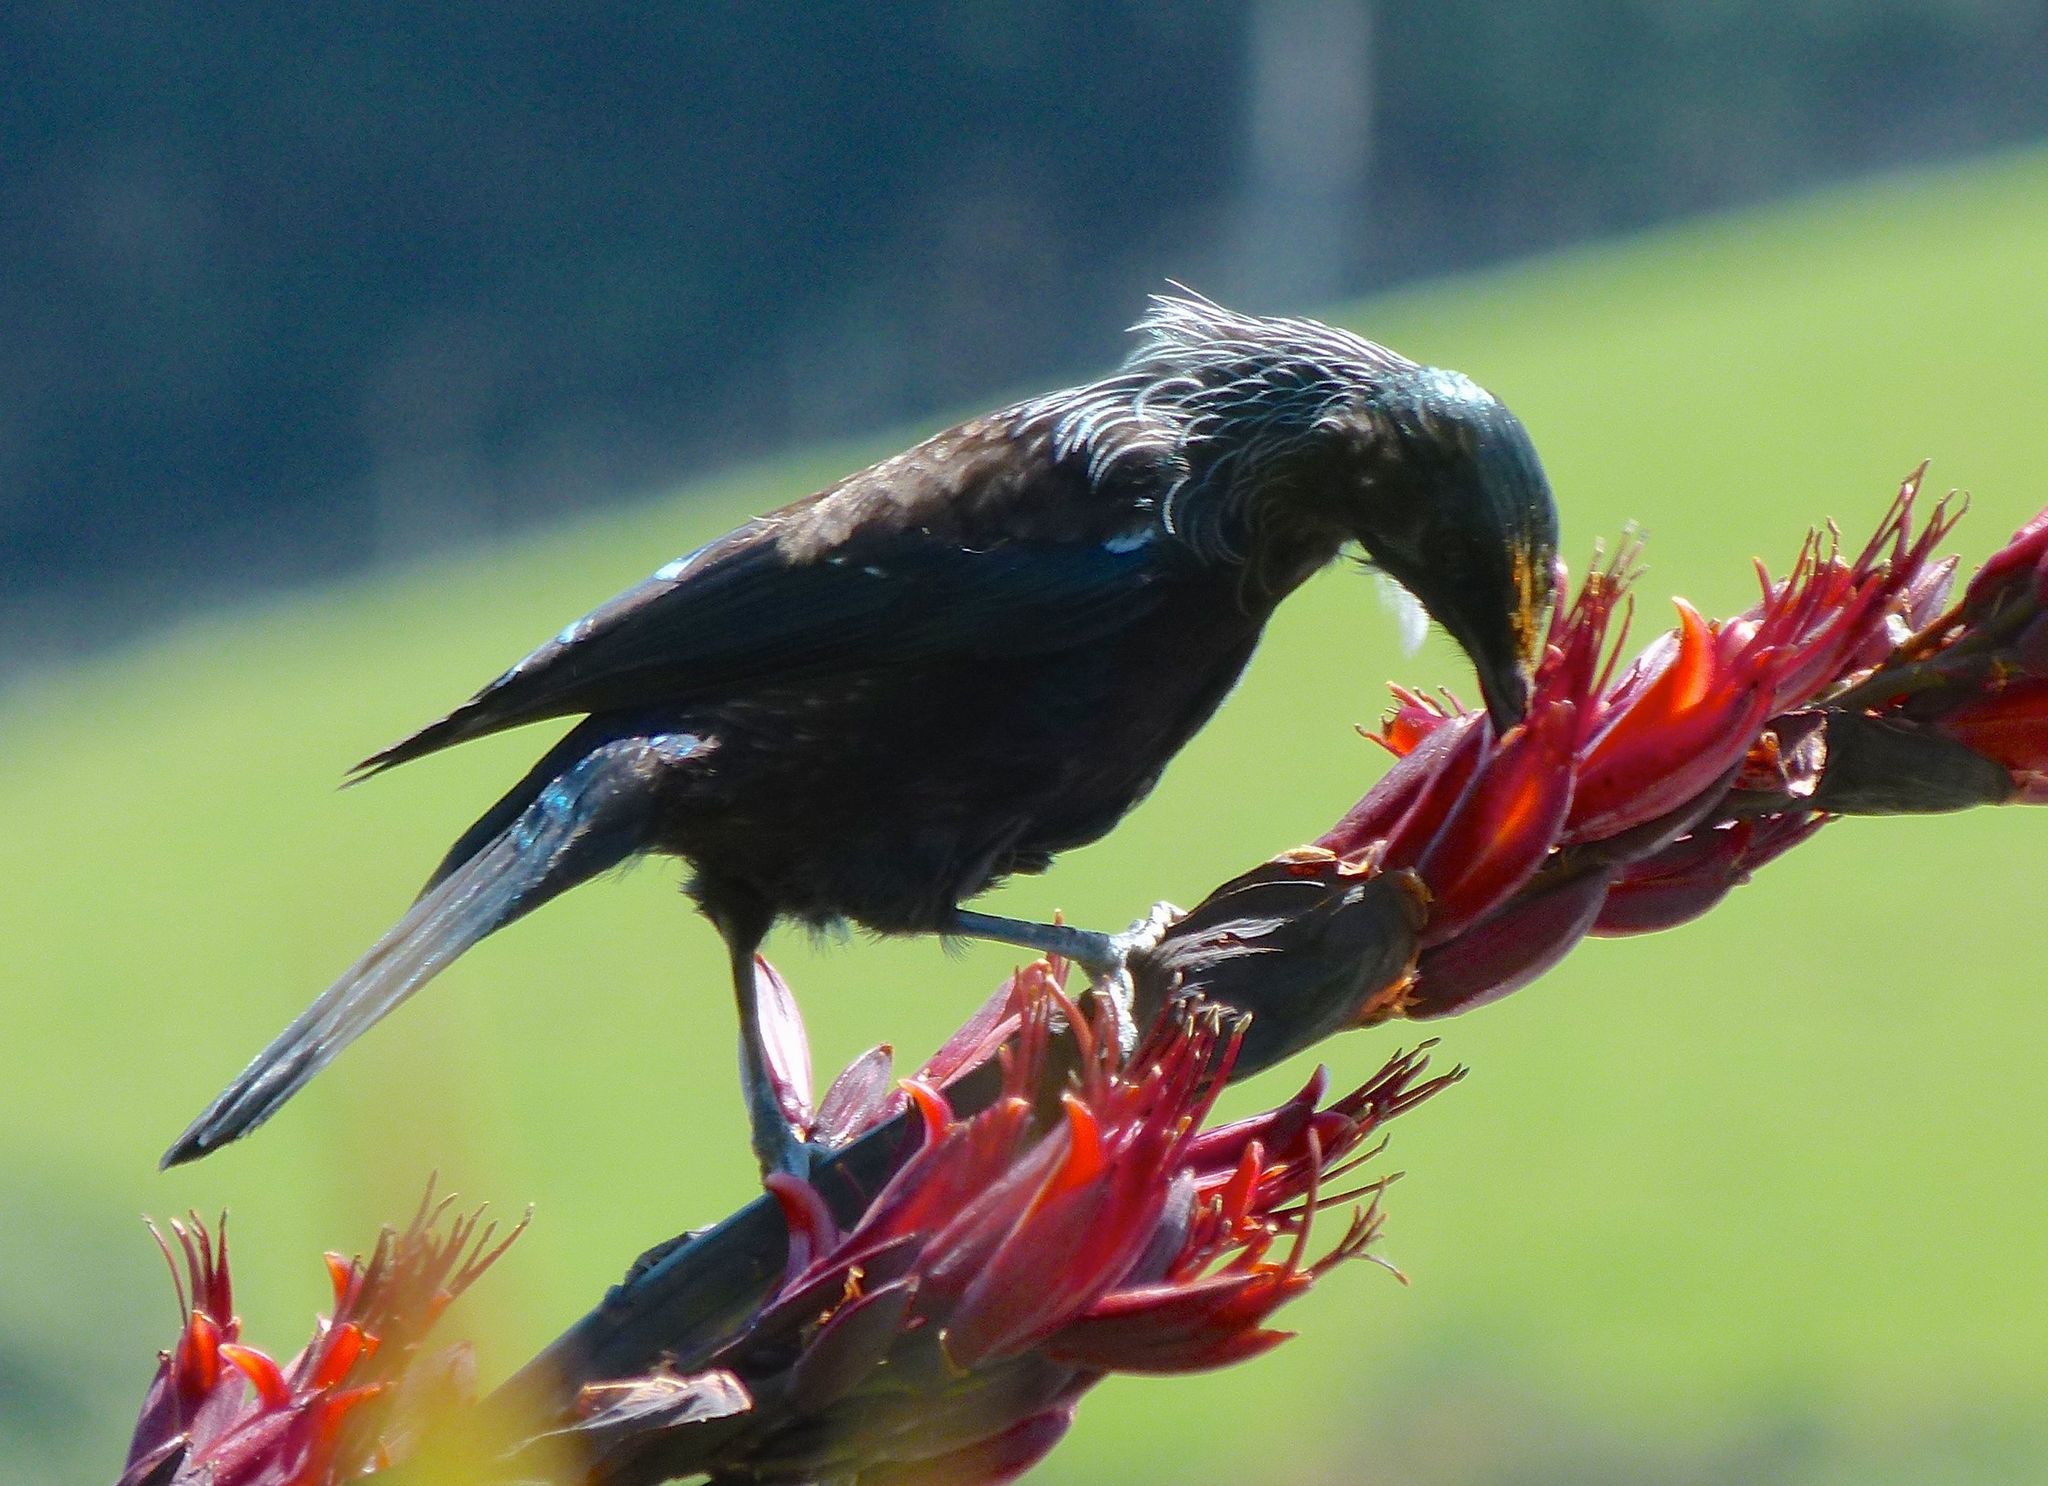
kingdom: Animalia
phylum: Chordata
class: Aves
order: Passeriformes
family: Meliphagidae
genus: Prosthemadera
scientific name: Prosthemadera novaeseelandiae
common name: Tui
